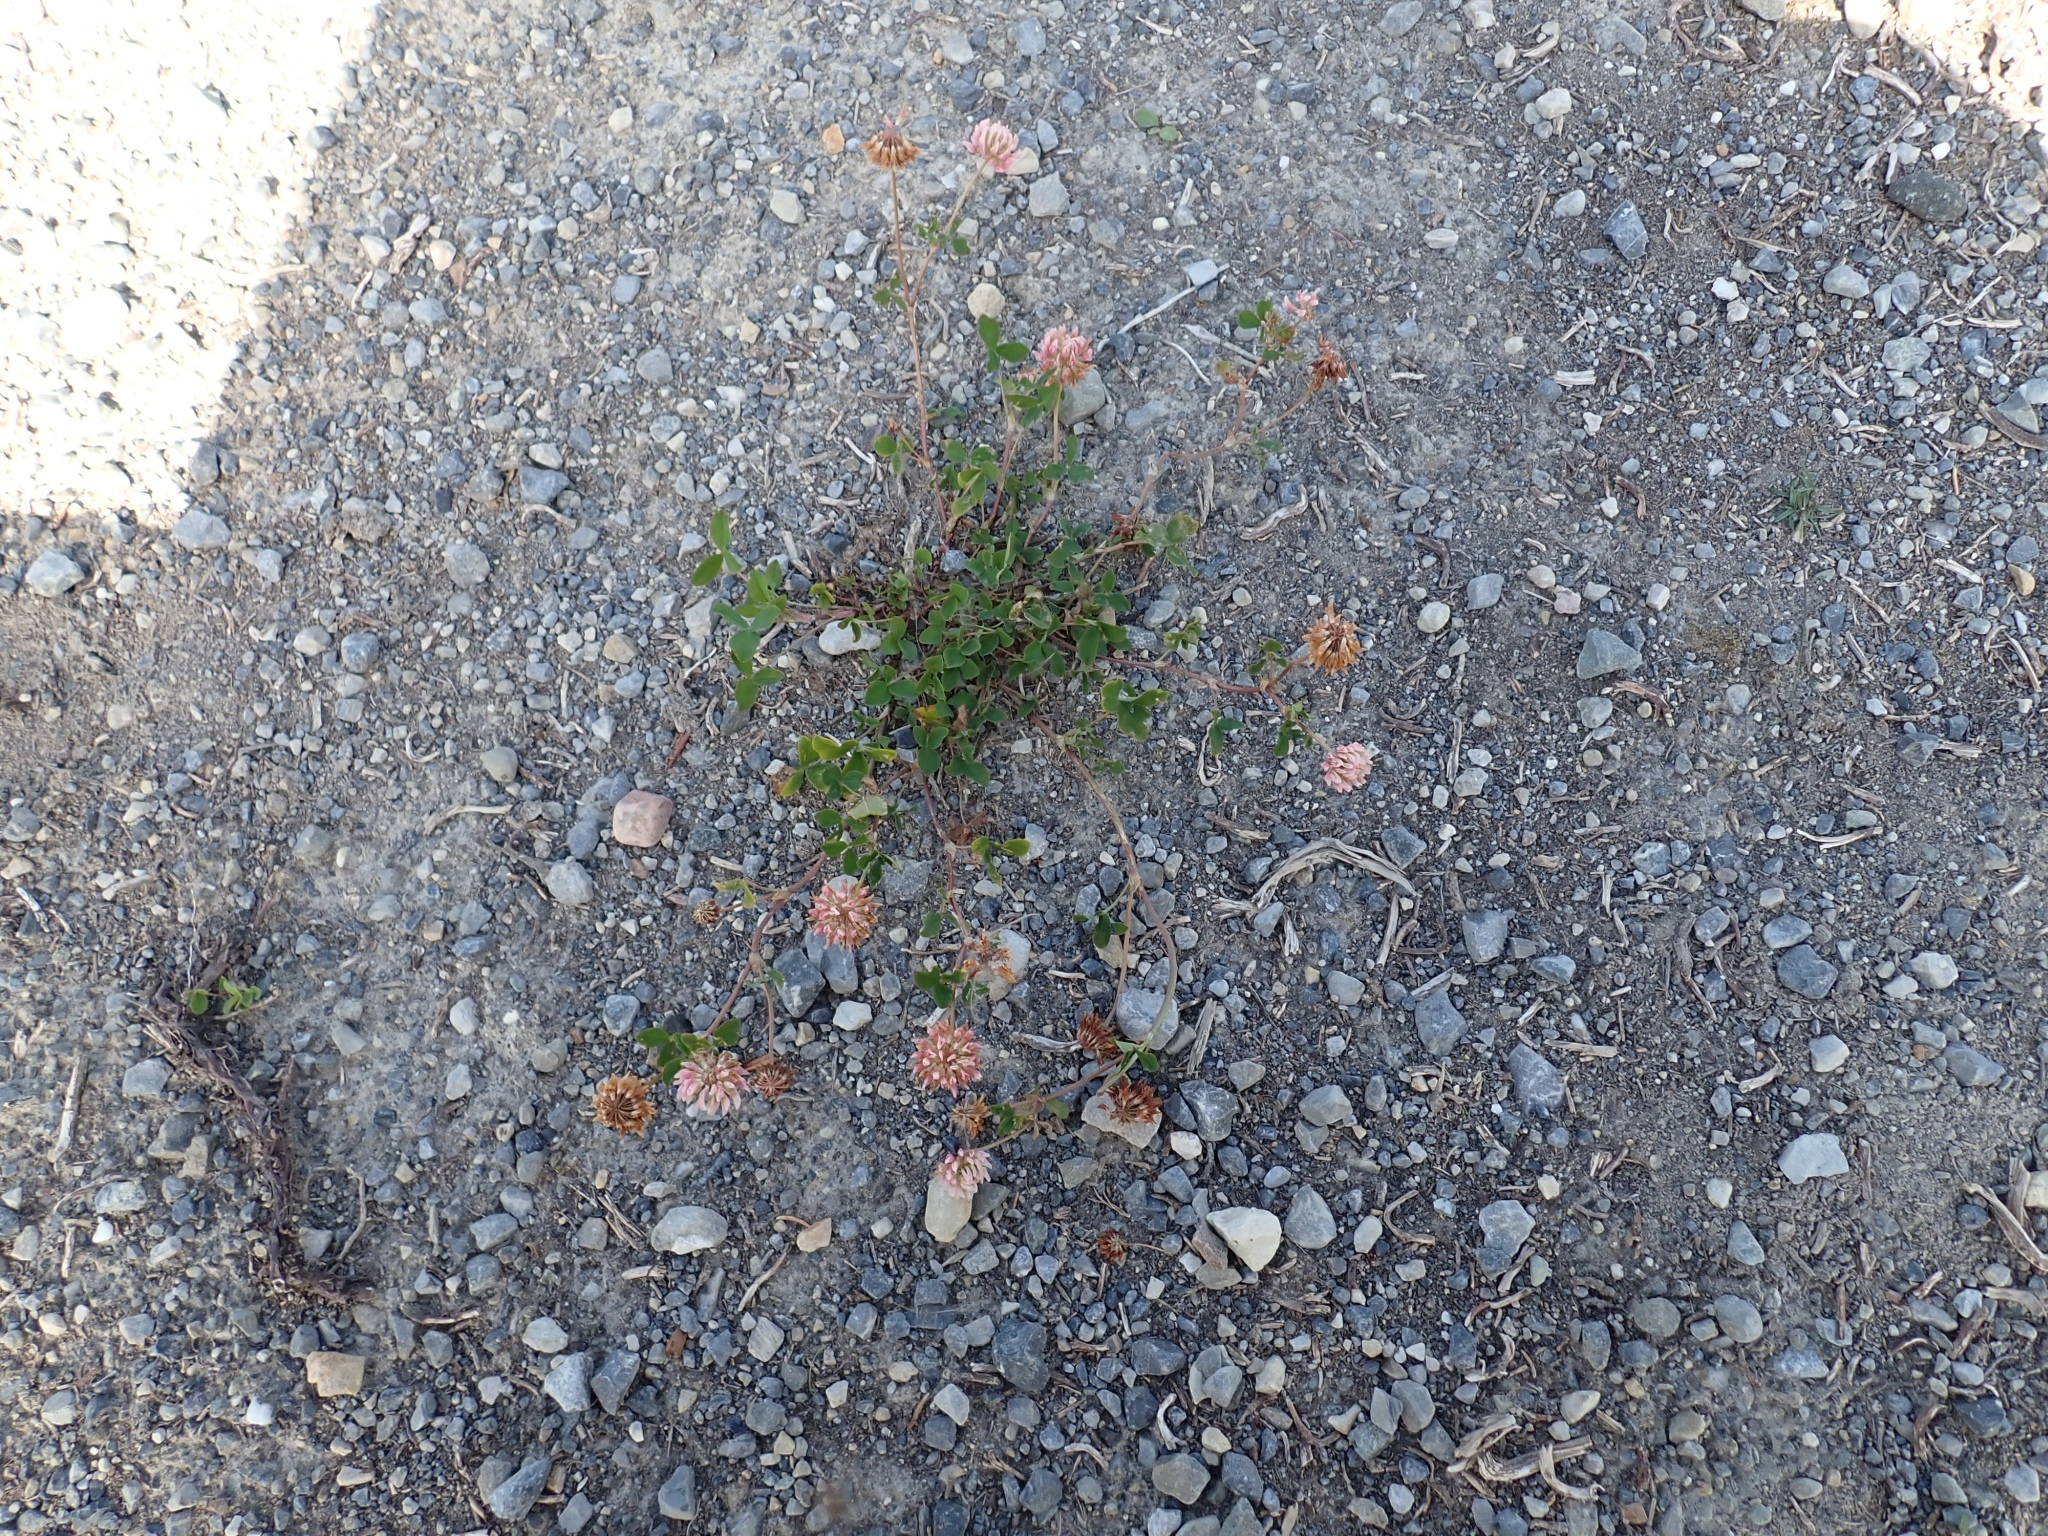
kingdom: Plantae
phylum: Tracheophyta
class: Magnoliopsida
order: Fabales
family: Fabaceae
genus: Trifolium
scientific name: Trifolium hybridum
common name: Alsike clover
